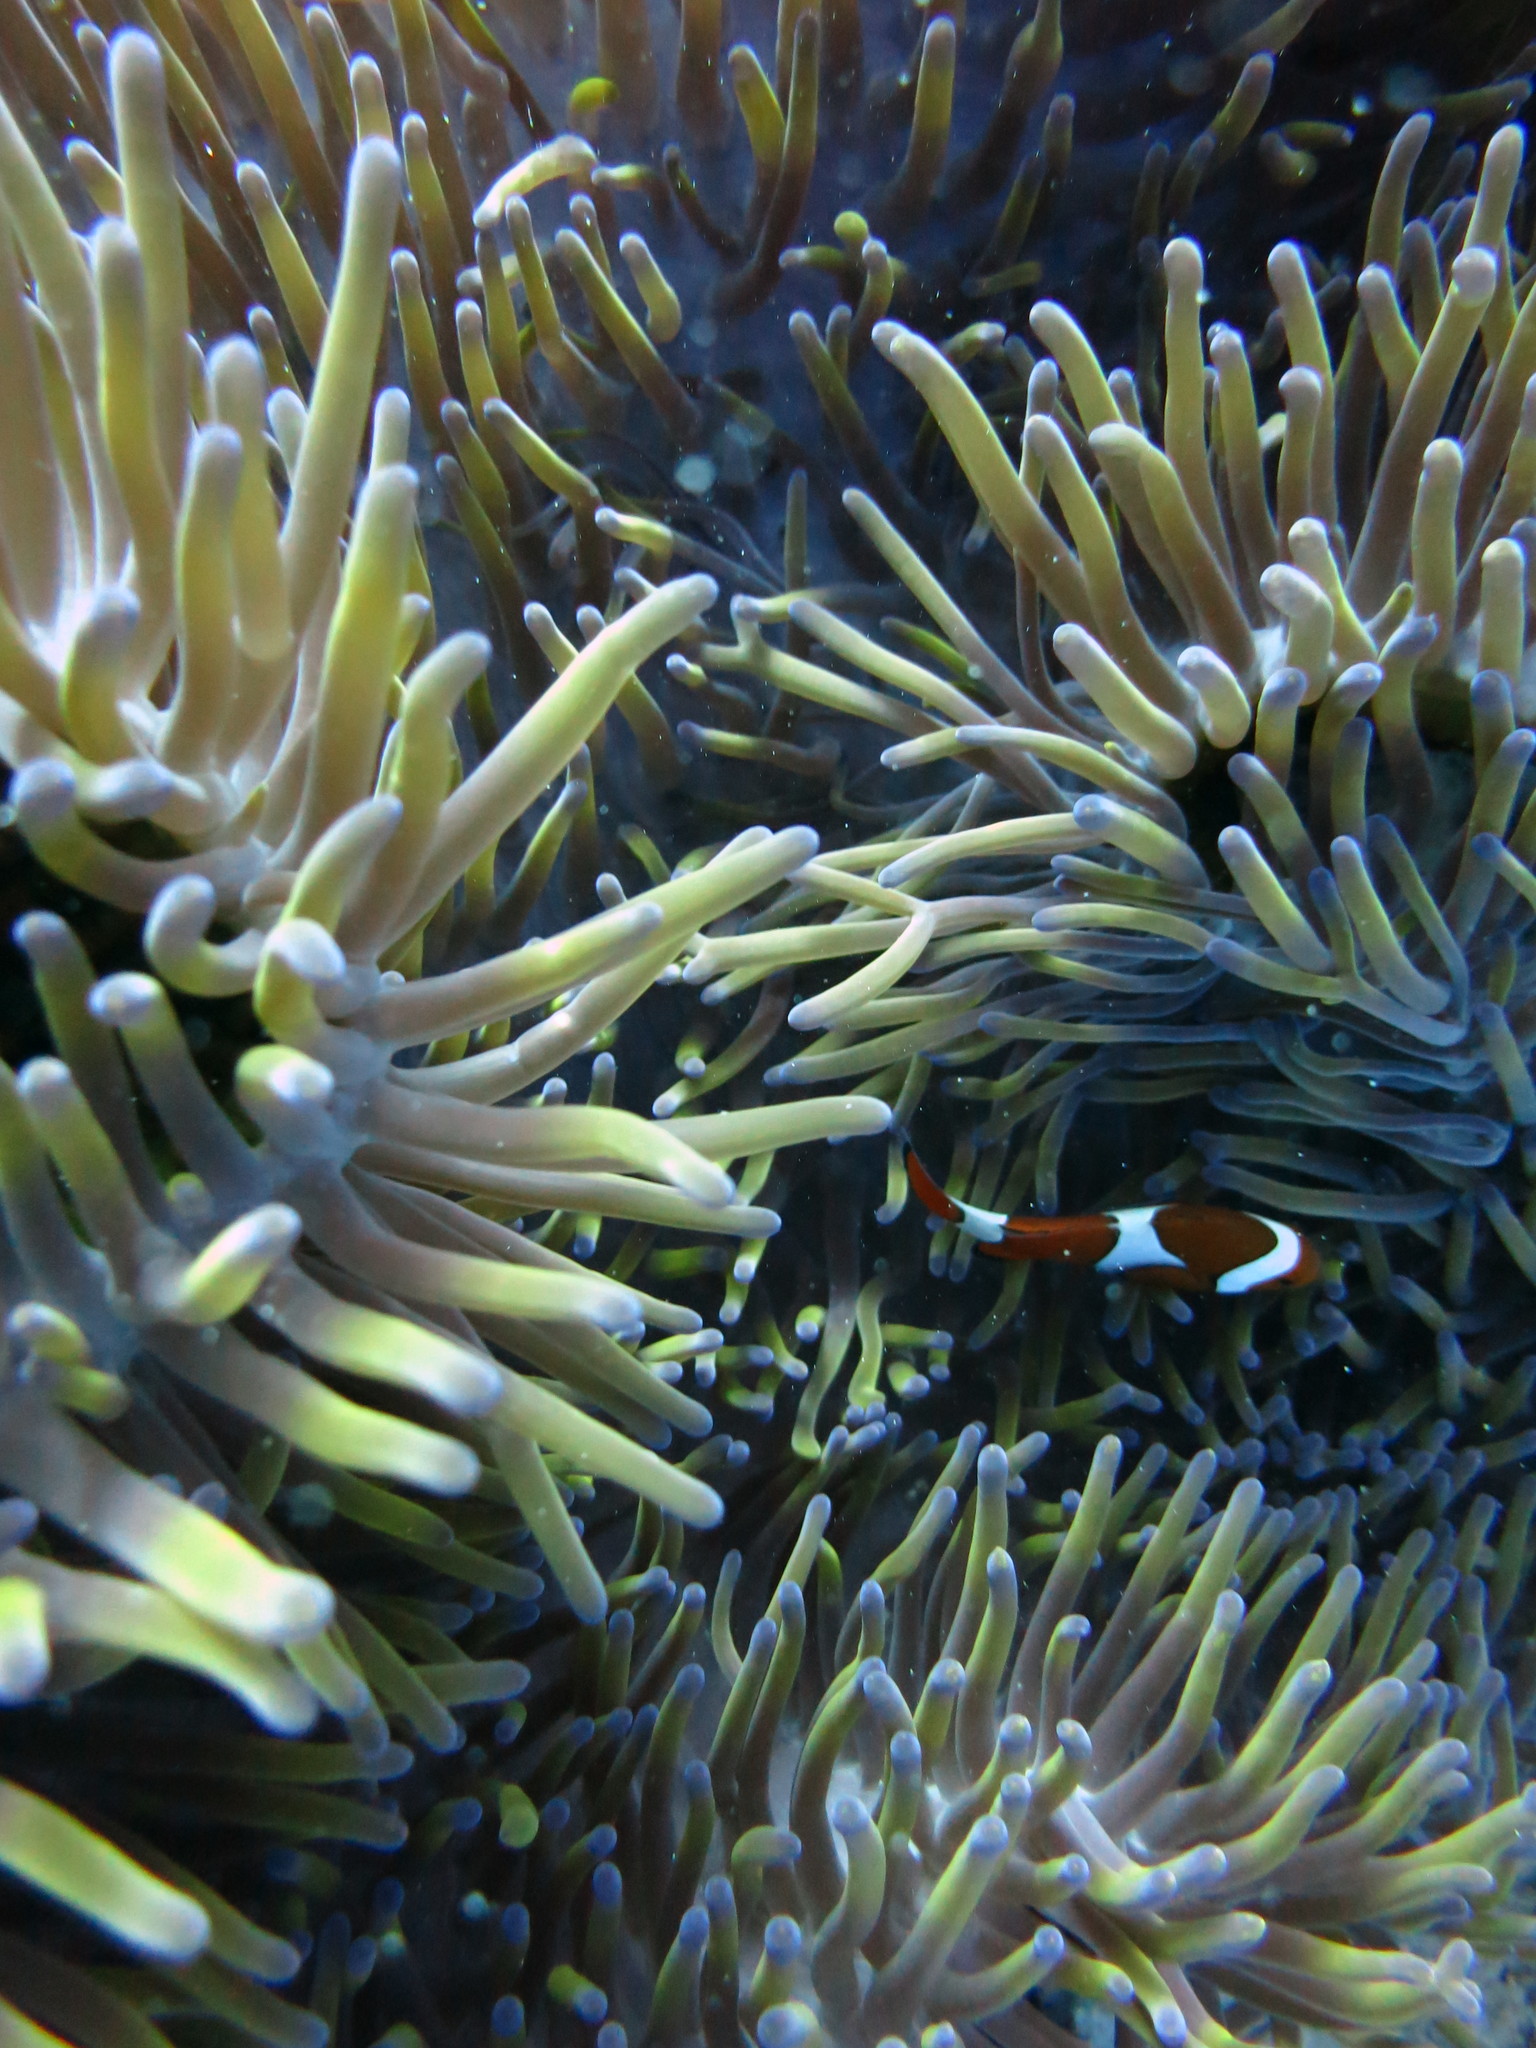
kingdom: Animalia
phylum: Chordata
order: Perciformes
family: Pomacentridae
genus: Amphiprion
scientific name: Amphiprion percula
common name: Clown anemonefish
